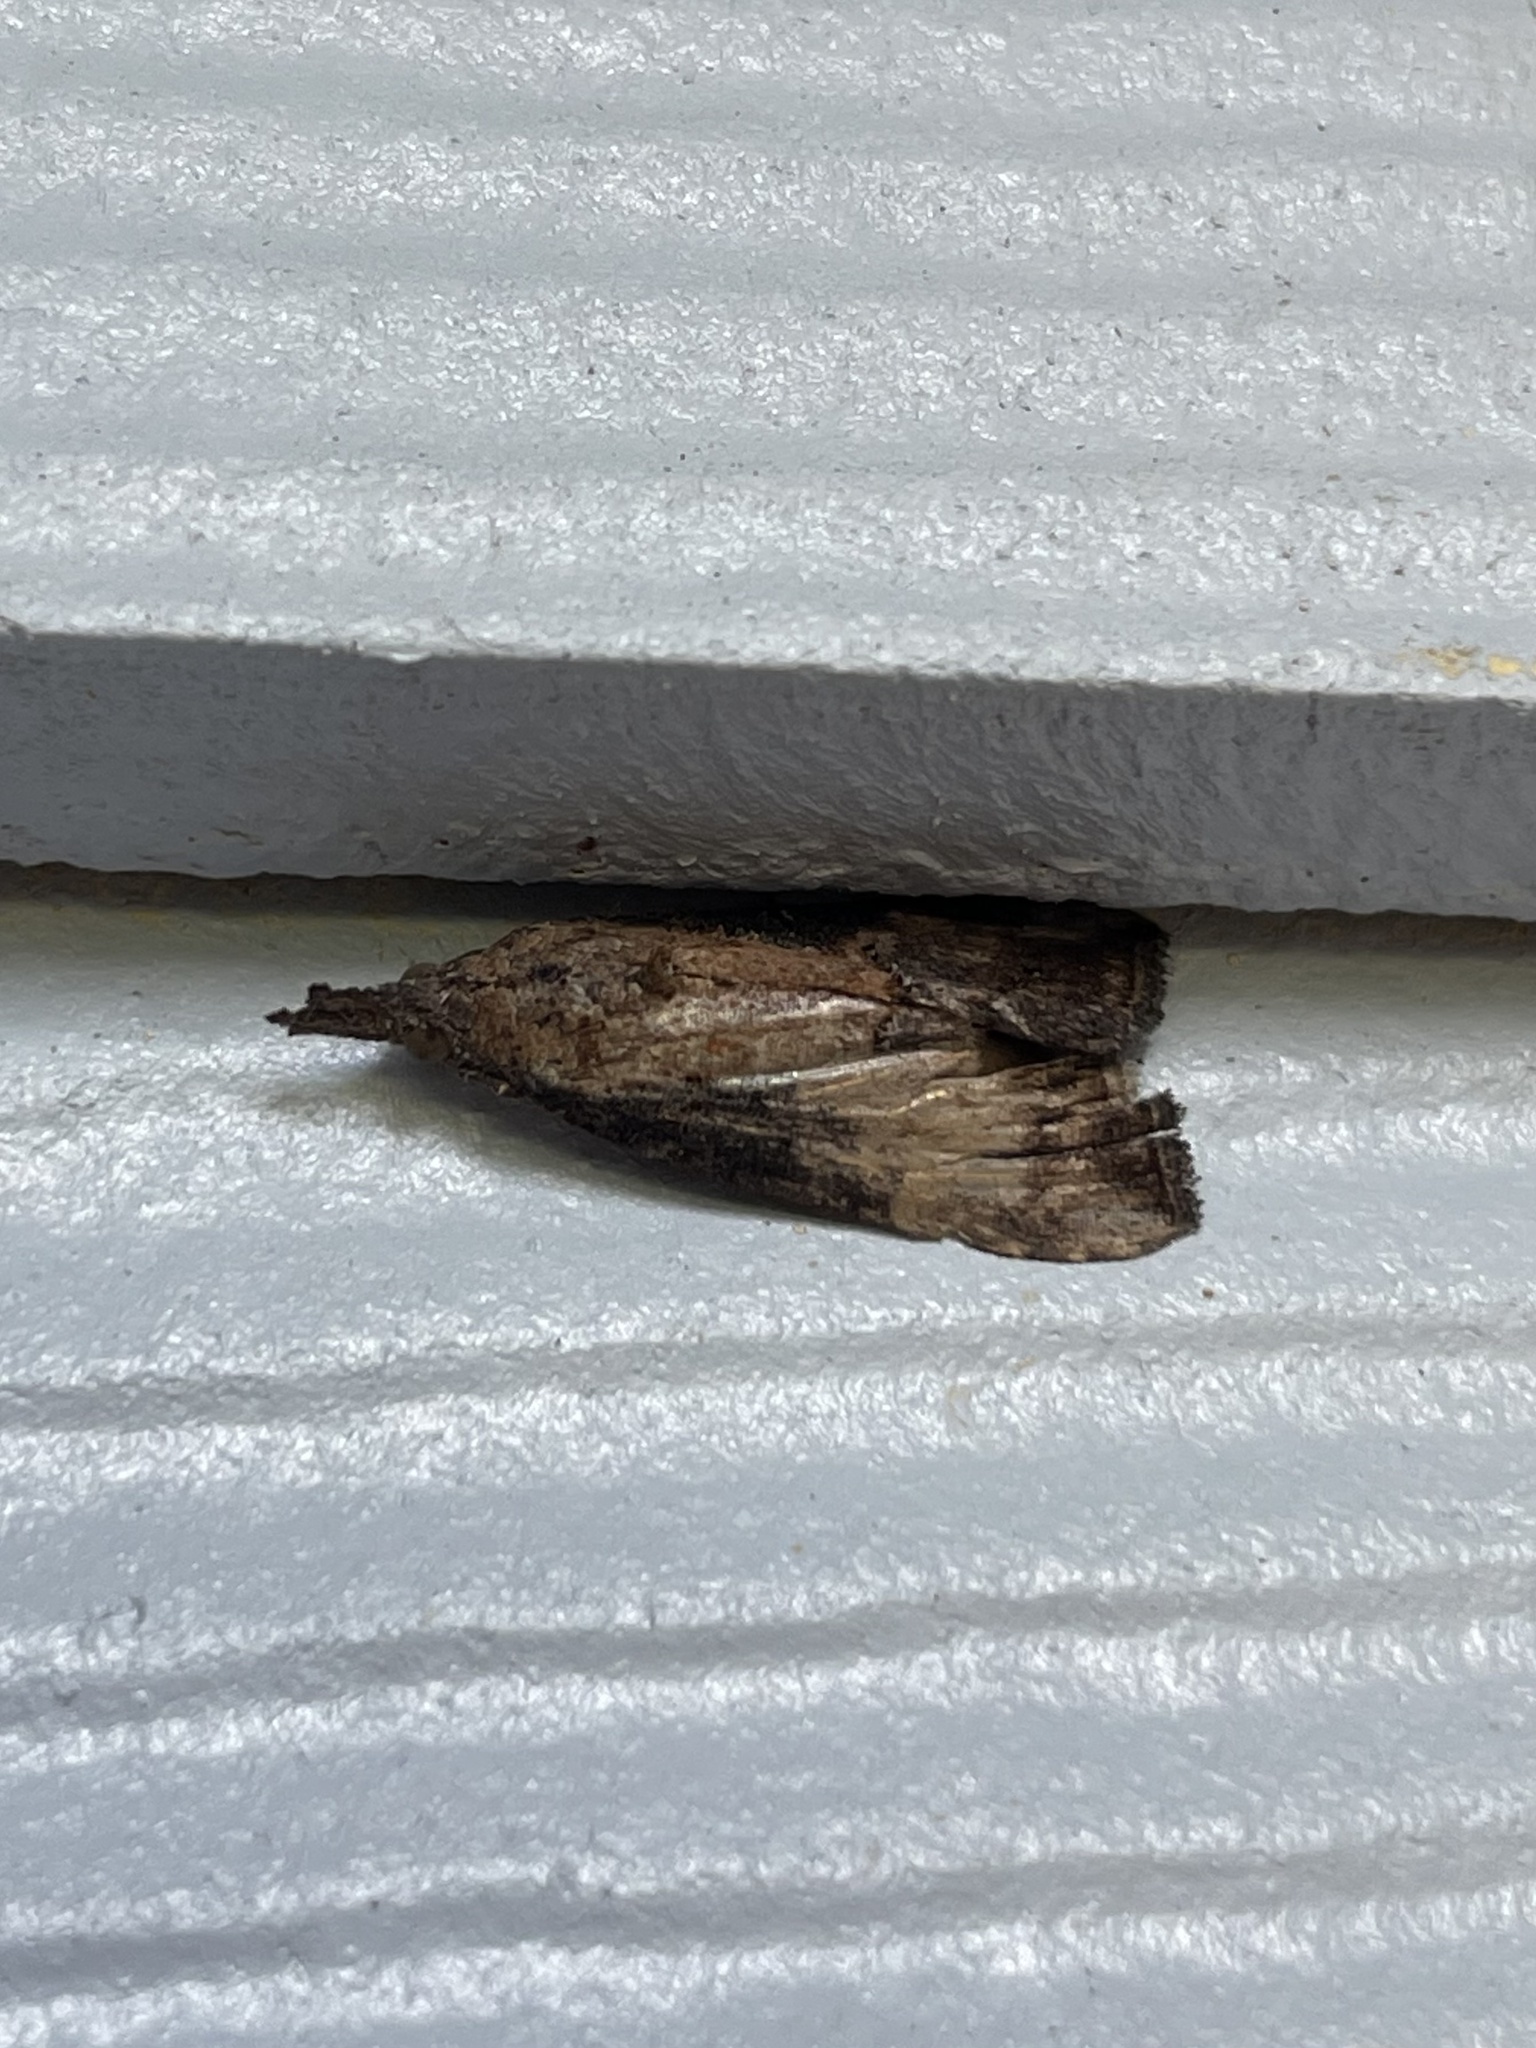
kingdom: Animalia
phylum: Arthropoda
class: Insecta
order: Lepidoptera
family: Erebidae
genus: Hypena
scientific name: Hypena scabra
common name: Green cloverworm
